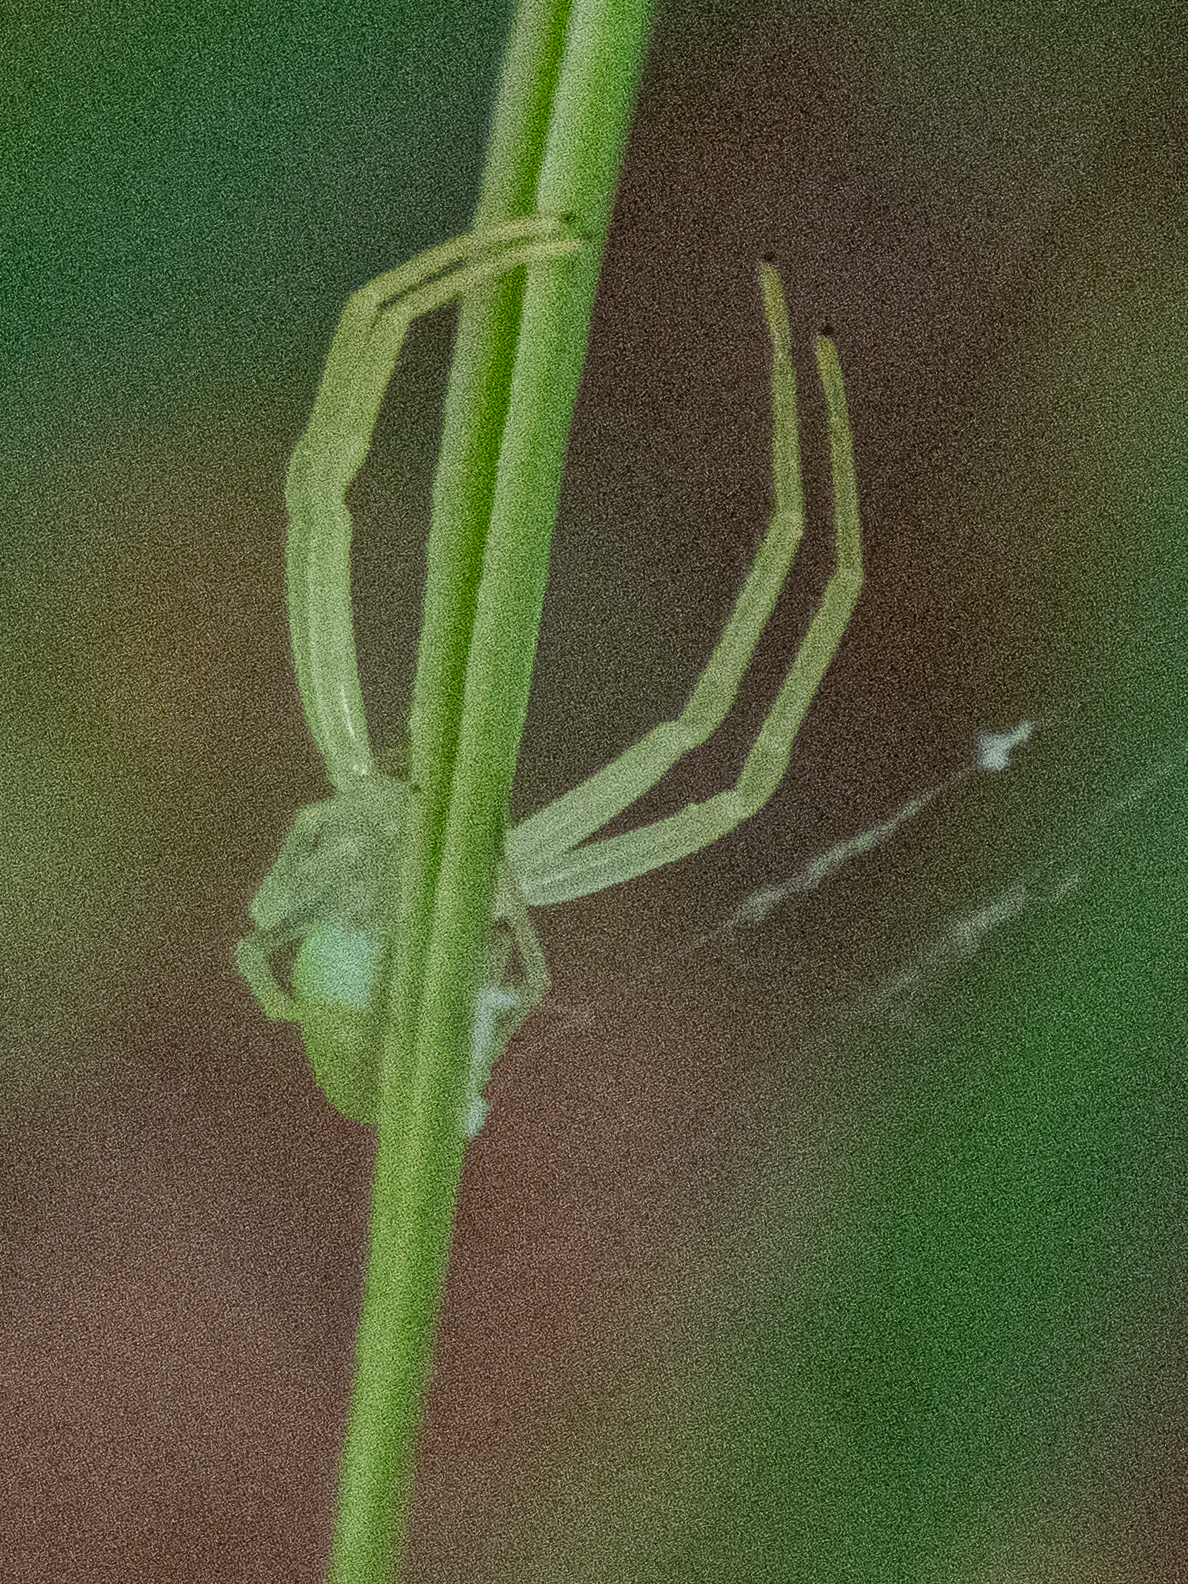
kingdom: Animalia
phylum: Arthropoda
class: Arachnida
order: Araneae
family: Thomisidae
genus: Misumessus
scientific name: Misumessus oblongus
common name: American green crab spider
